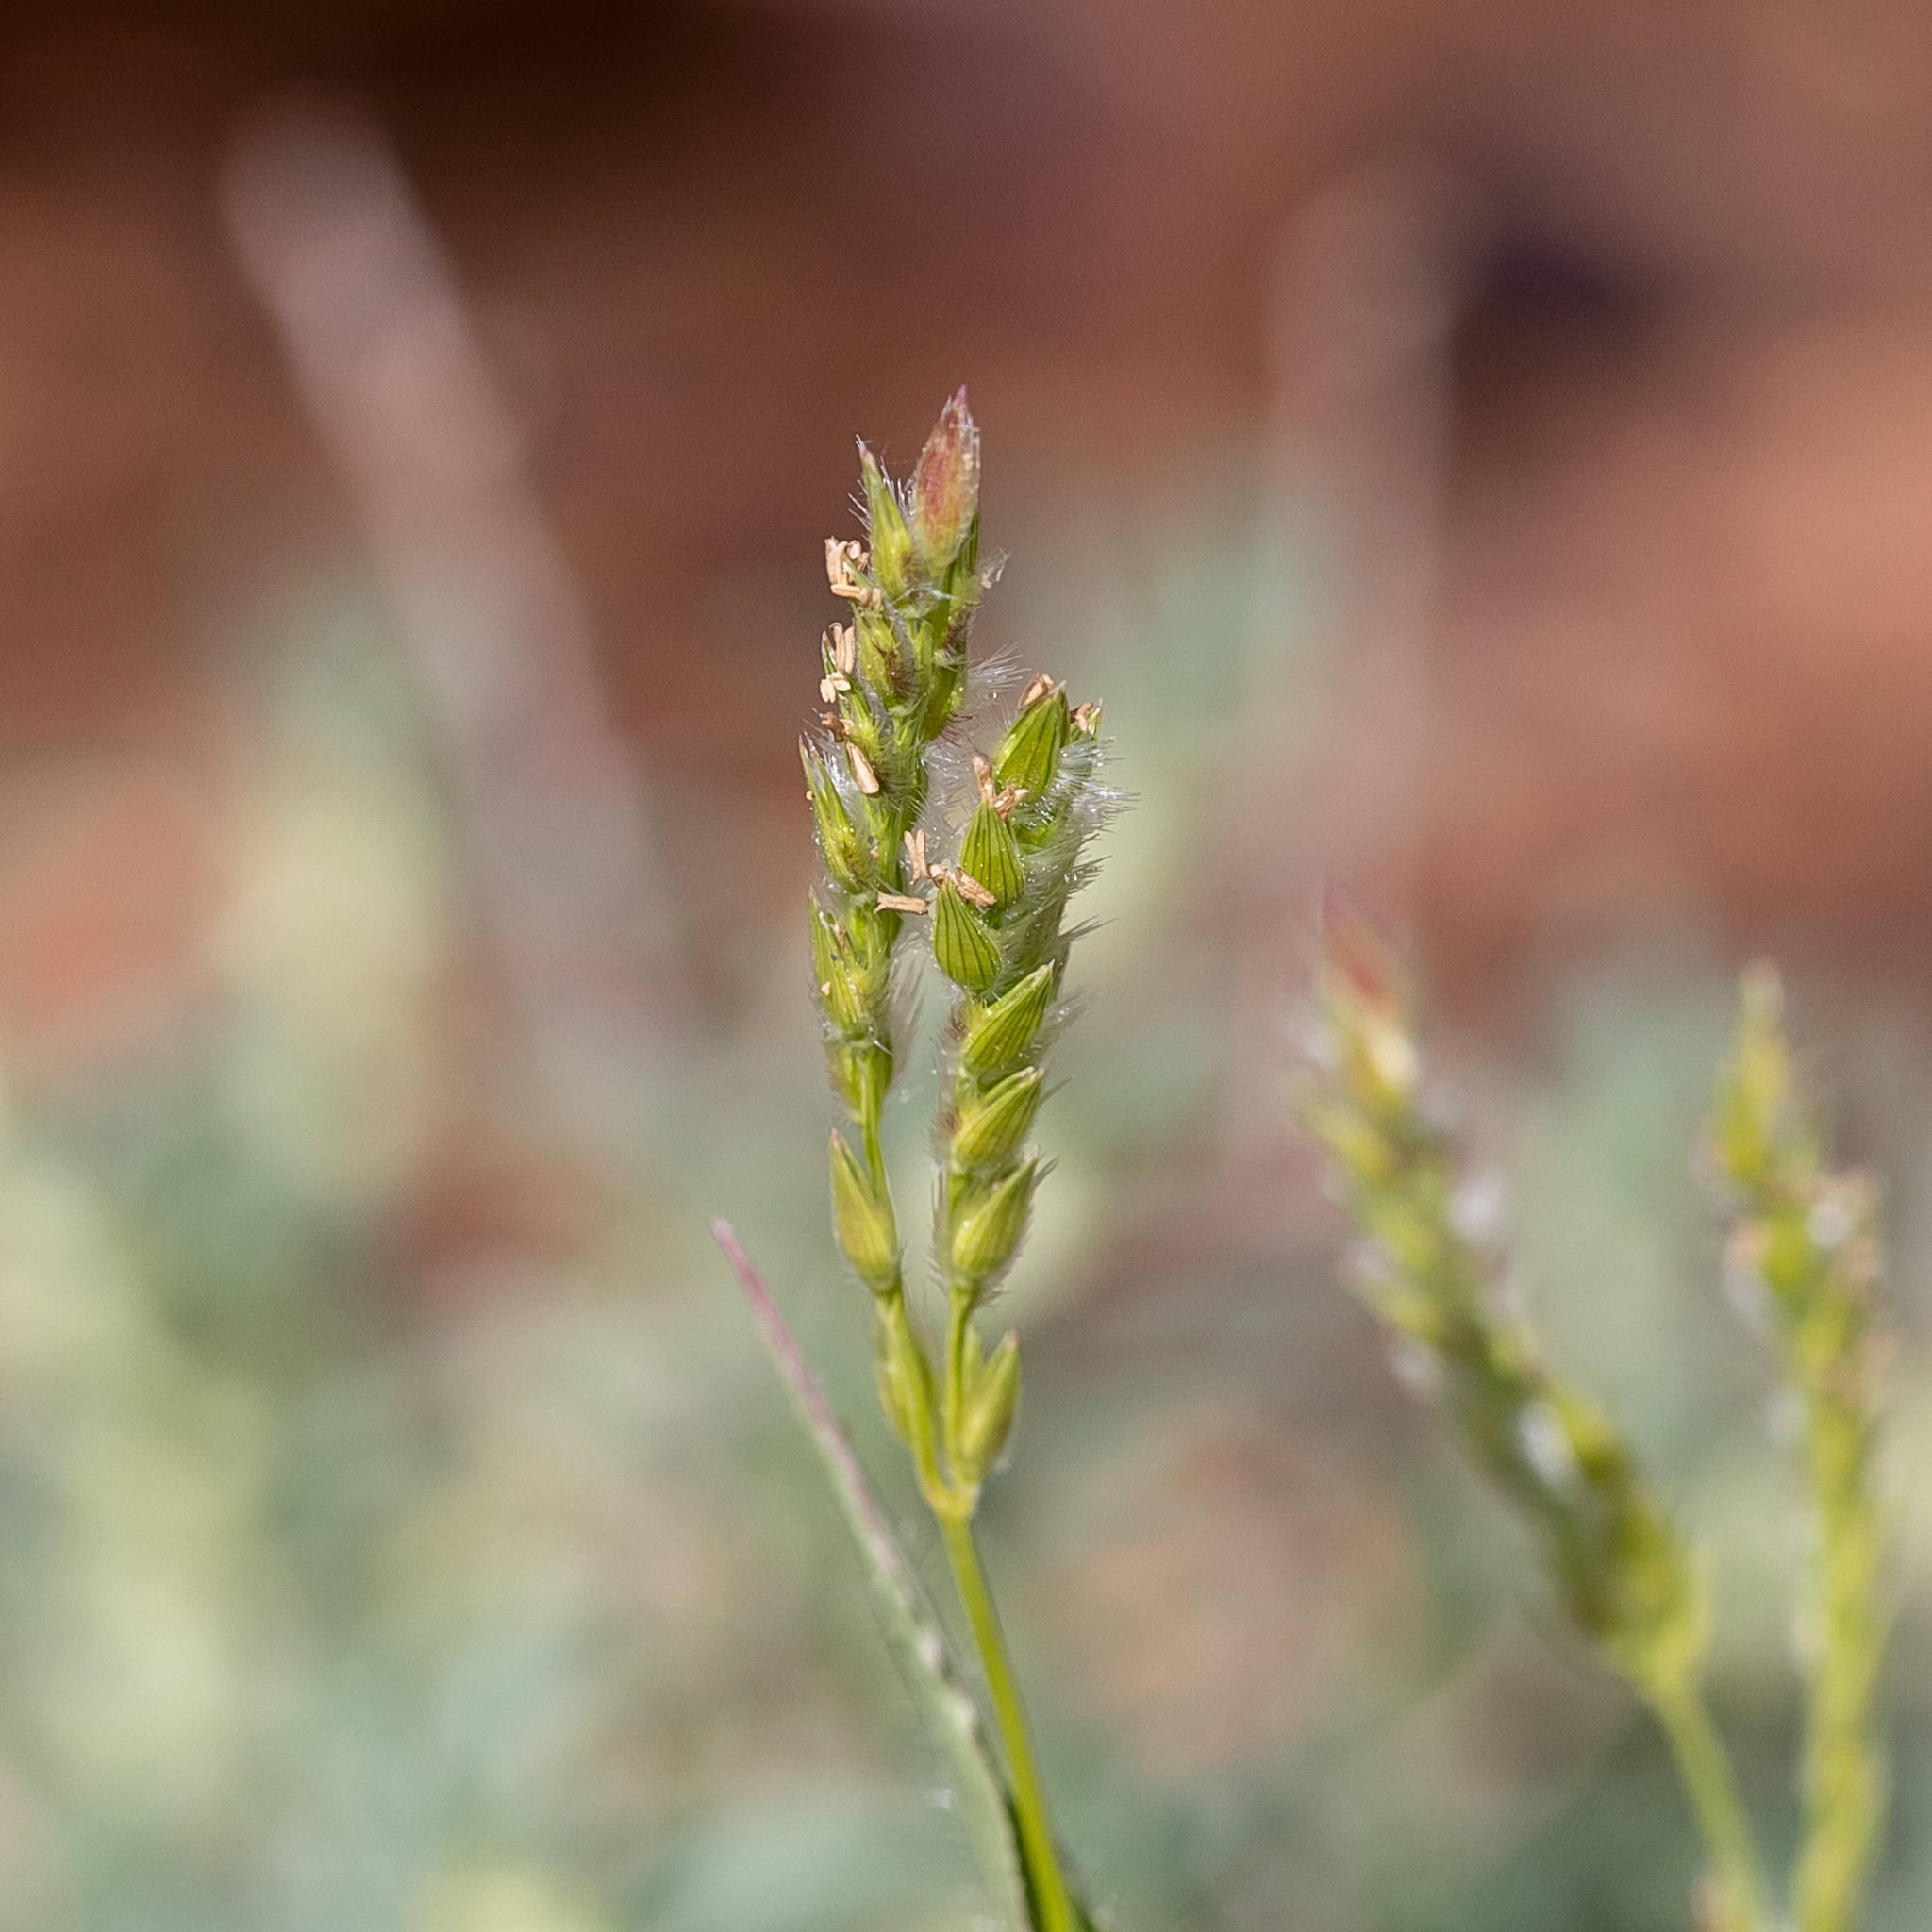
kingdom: Plantae
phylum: Tracheophyta
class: Liliopsida
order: Poales
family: Poaceae
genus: Urochloa
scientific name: Urochloa gilesii
